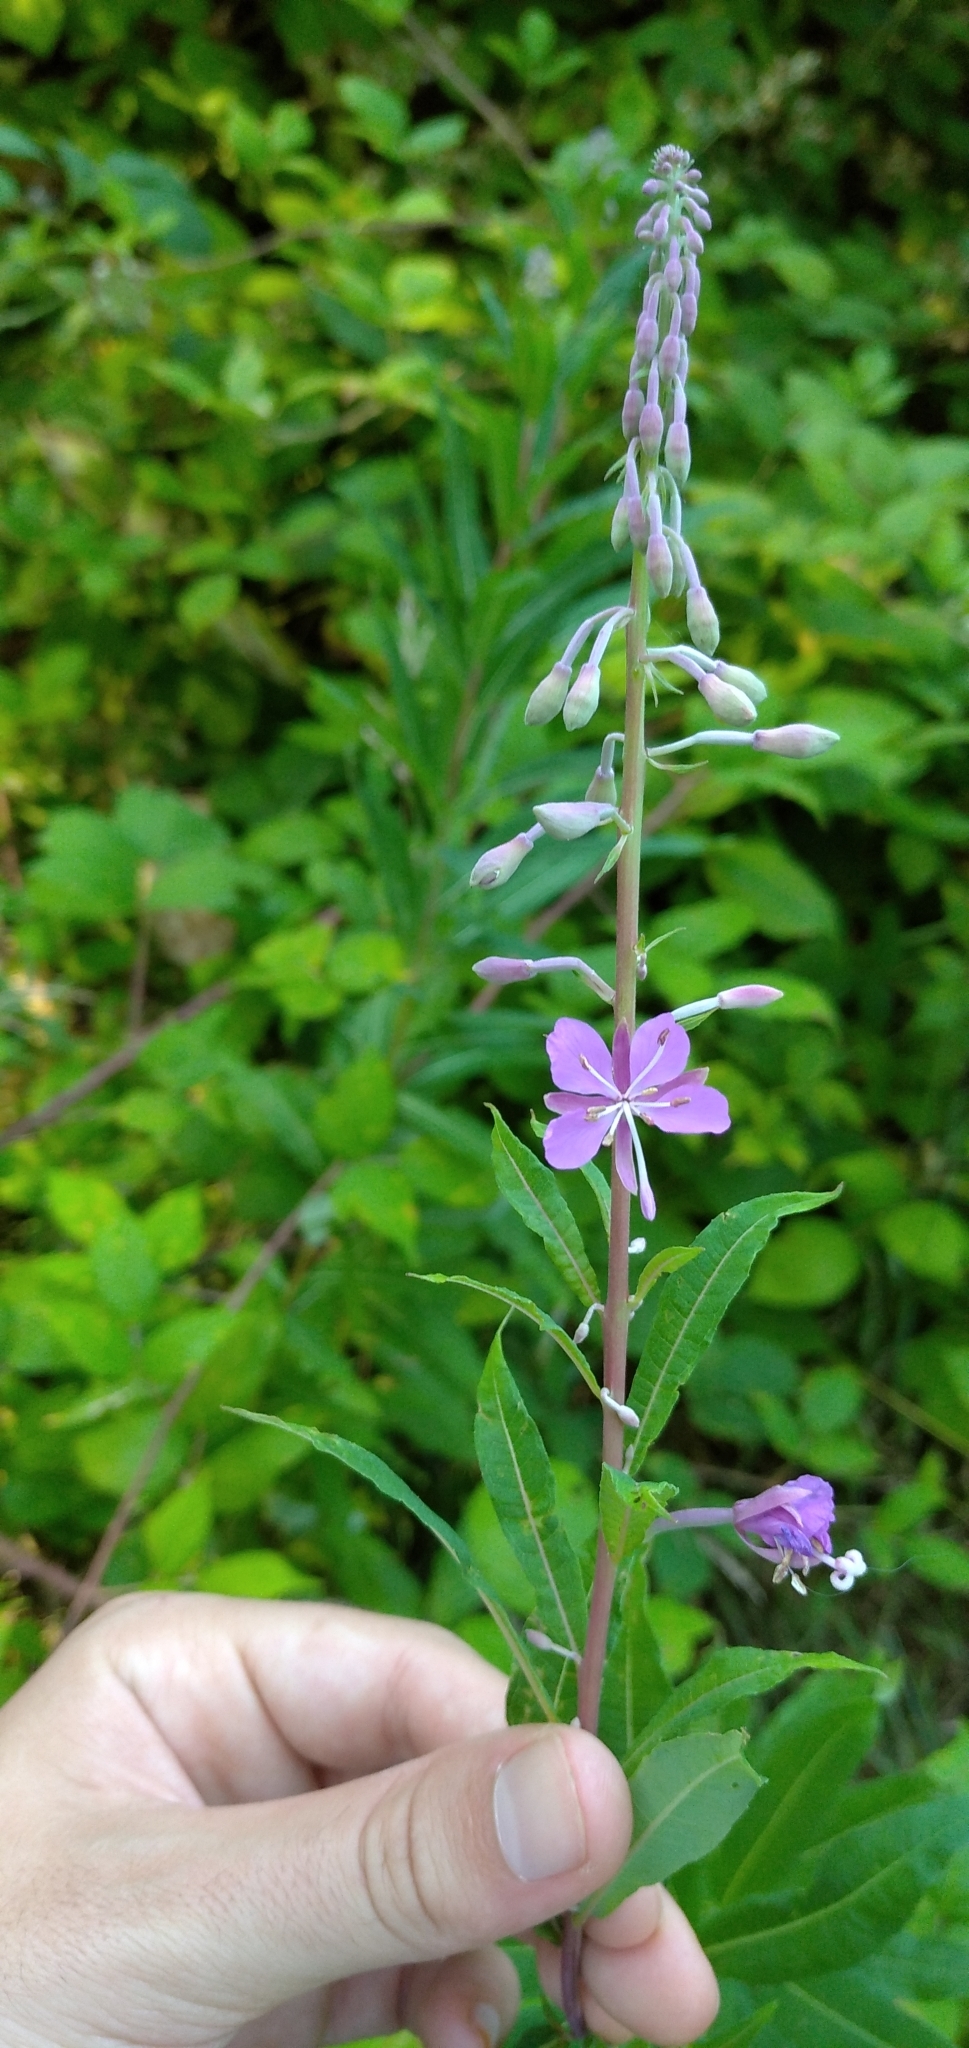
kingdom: Plantae
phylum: Tracheophyta
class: Magnoliopsida
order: Myrtales
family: Onagraceae
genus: Chamaenerion
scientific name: Chamaenerion angustifolium
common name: Fireweed
